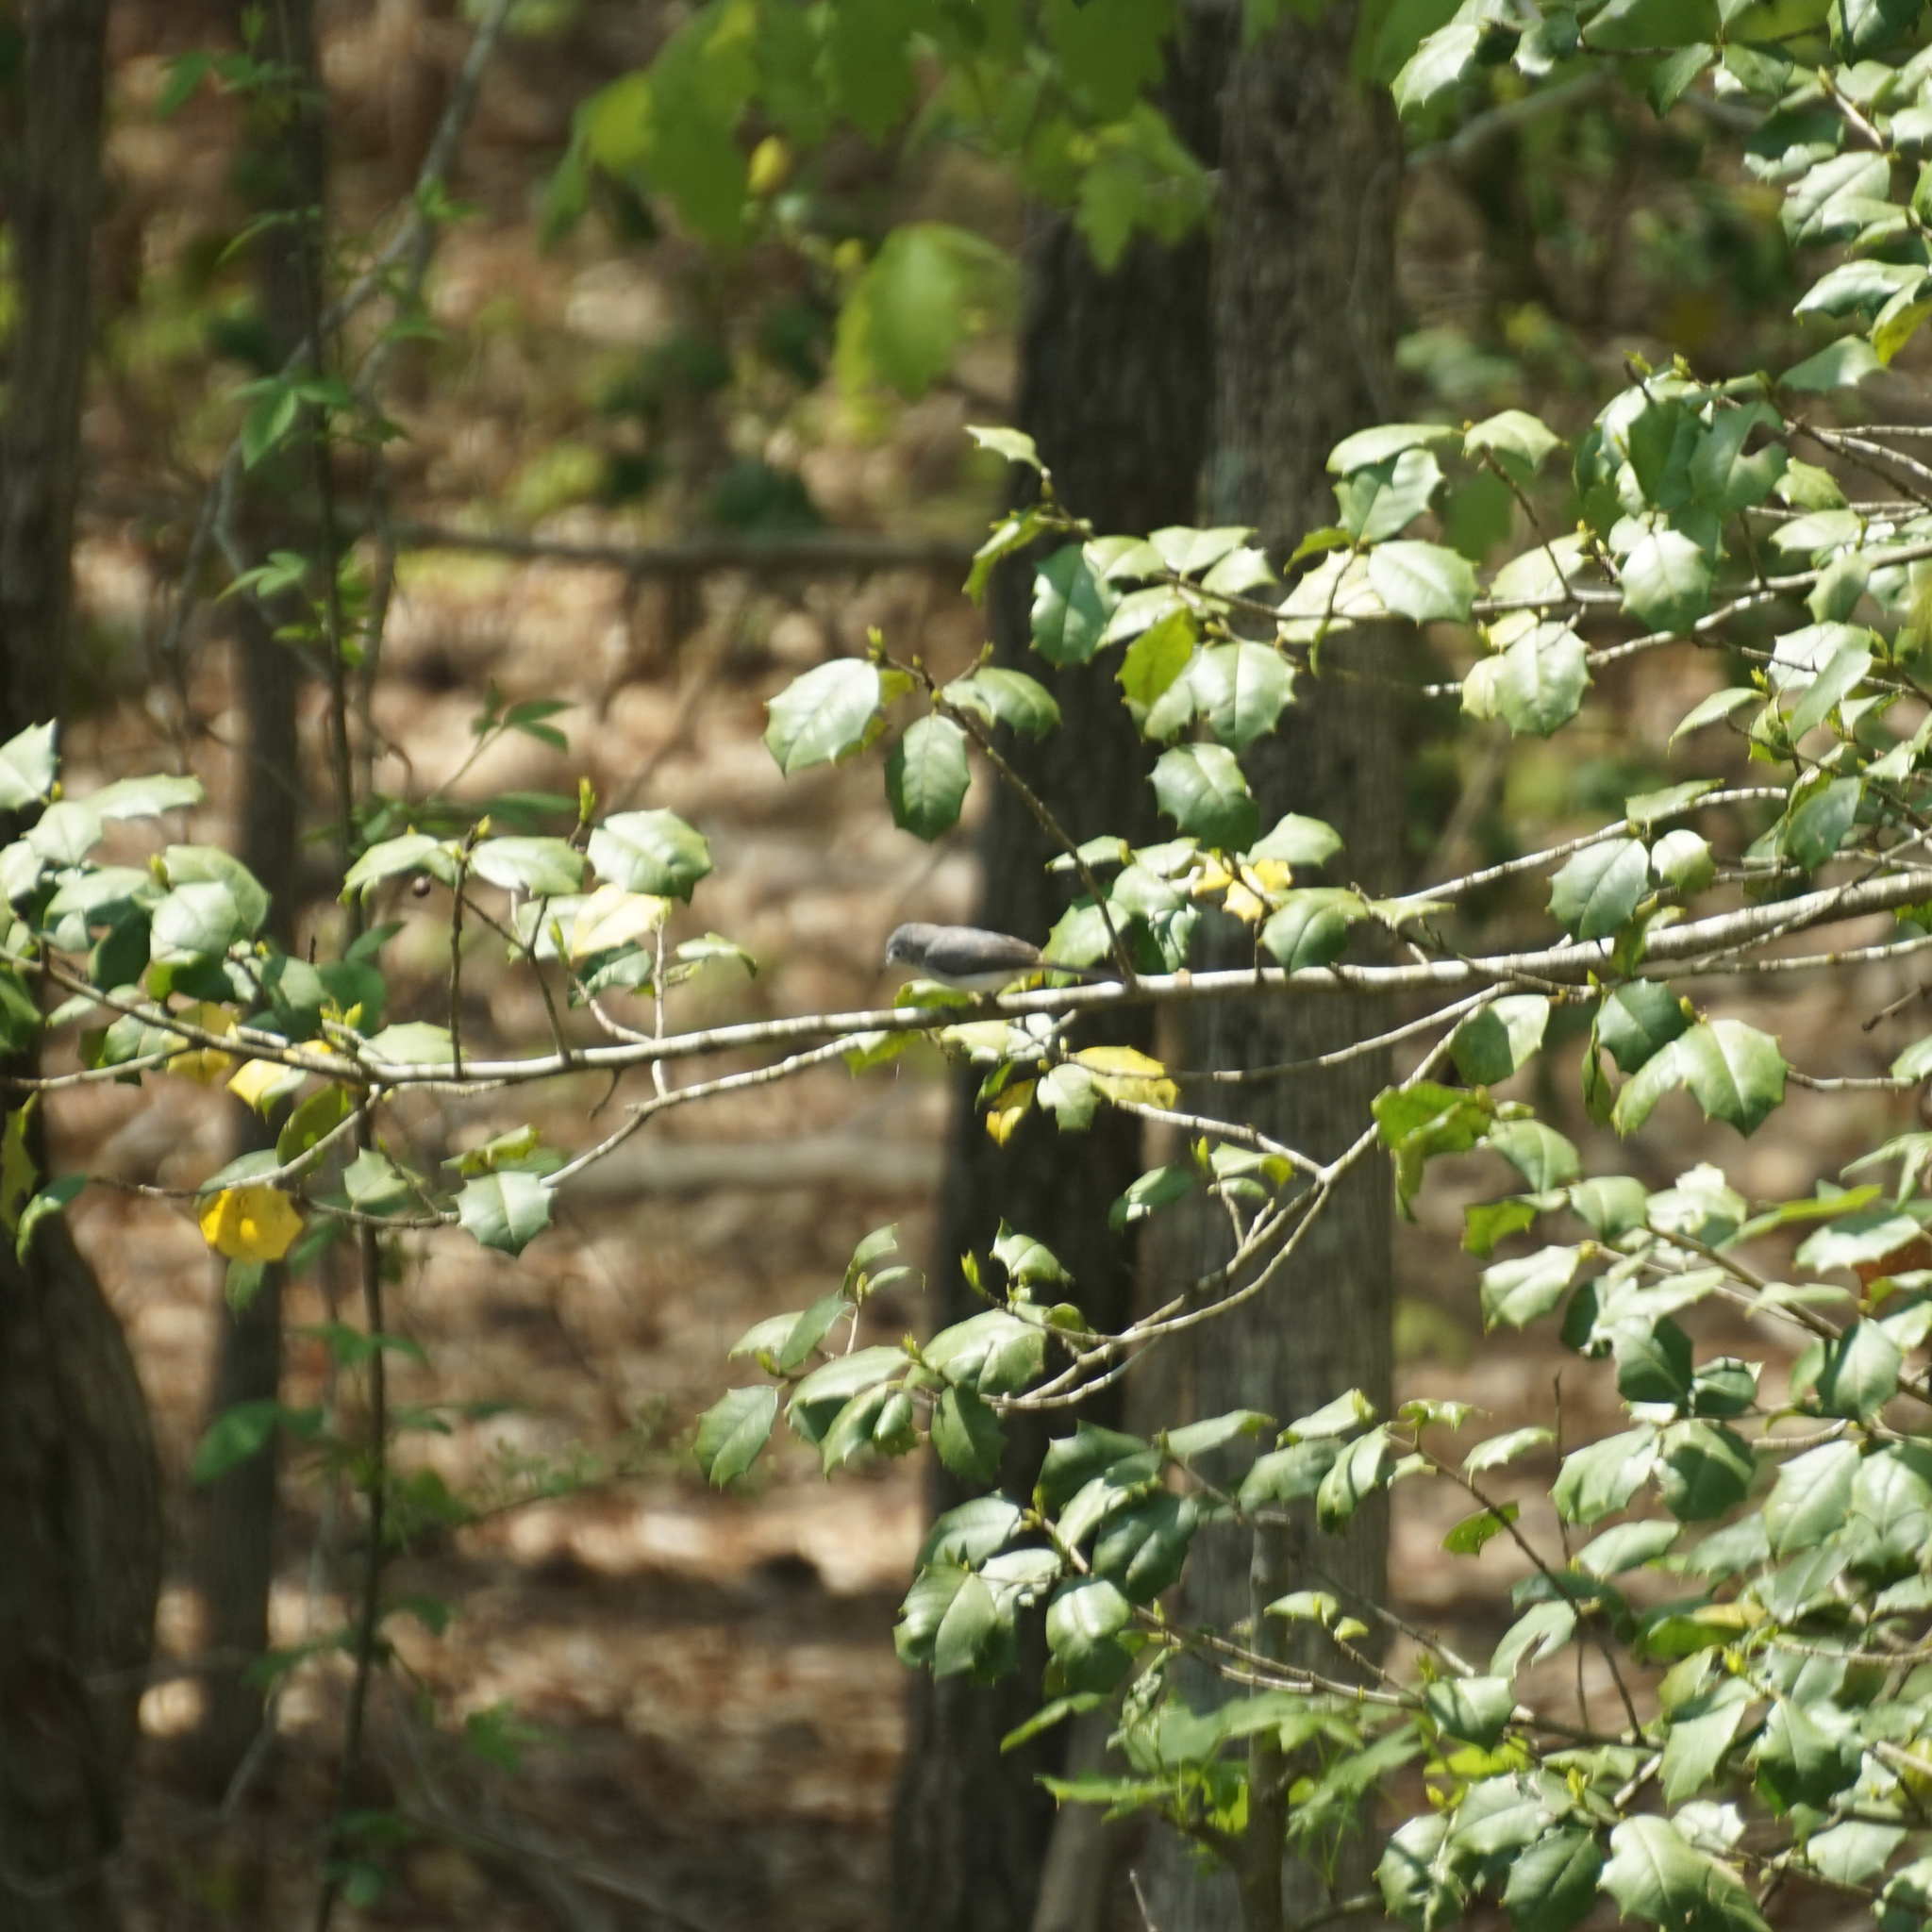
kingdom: Animalia
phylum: Chordata
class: Aves
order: Passeriformes
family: Polioptilidae
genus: Polioptila
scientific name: Polioptila caerulea
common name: Blue-gray gnatcatcher
